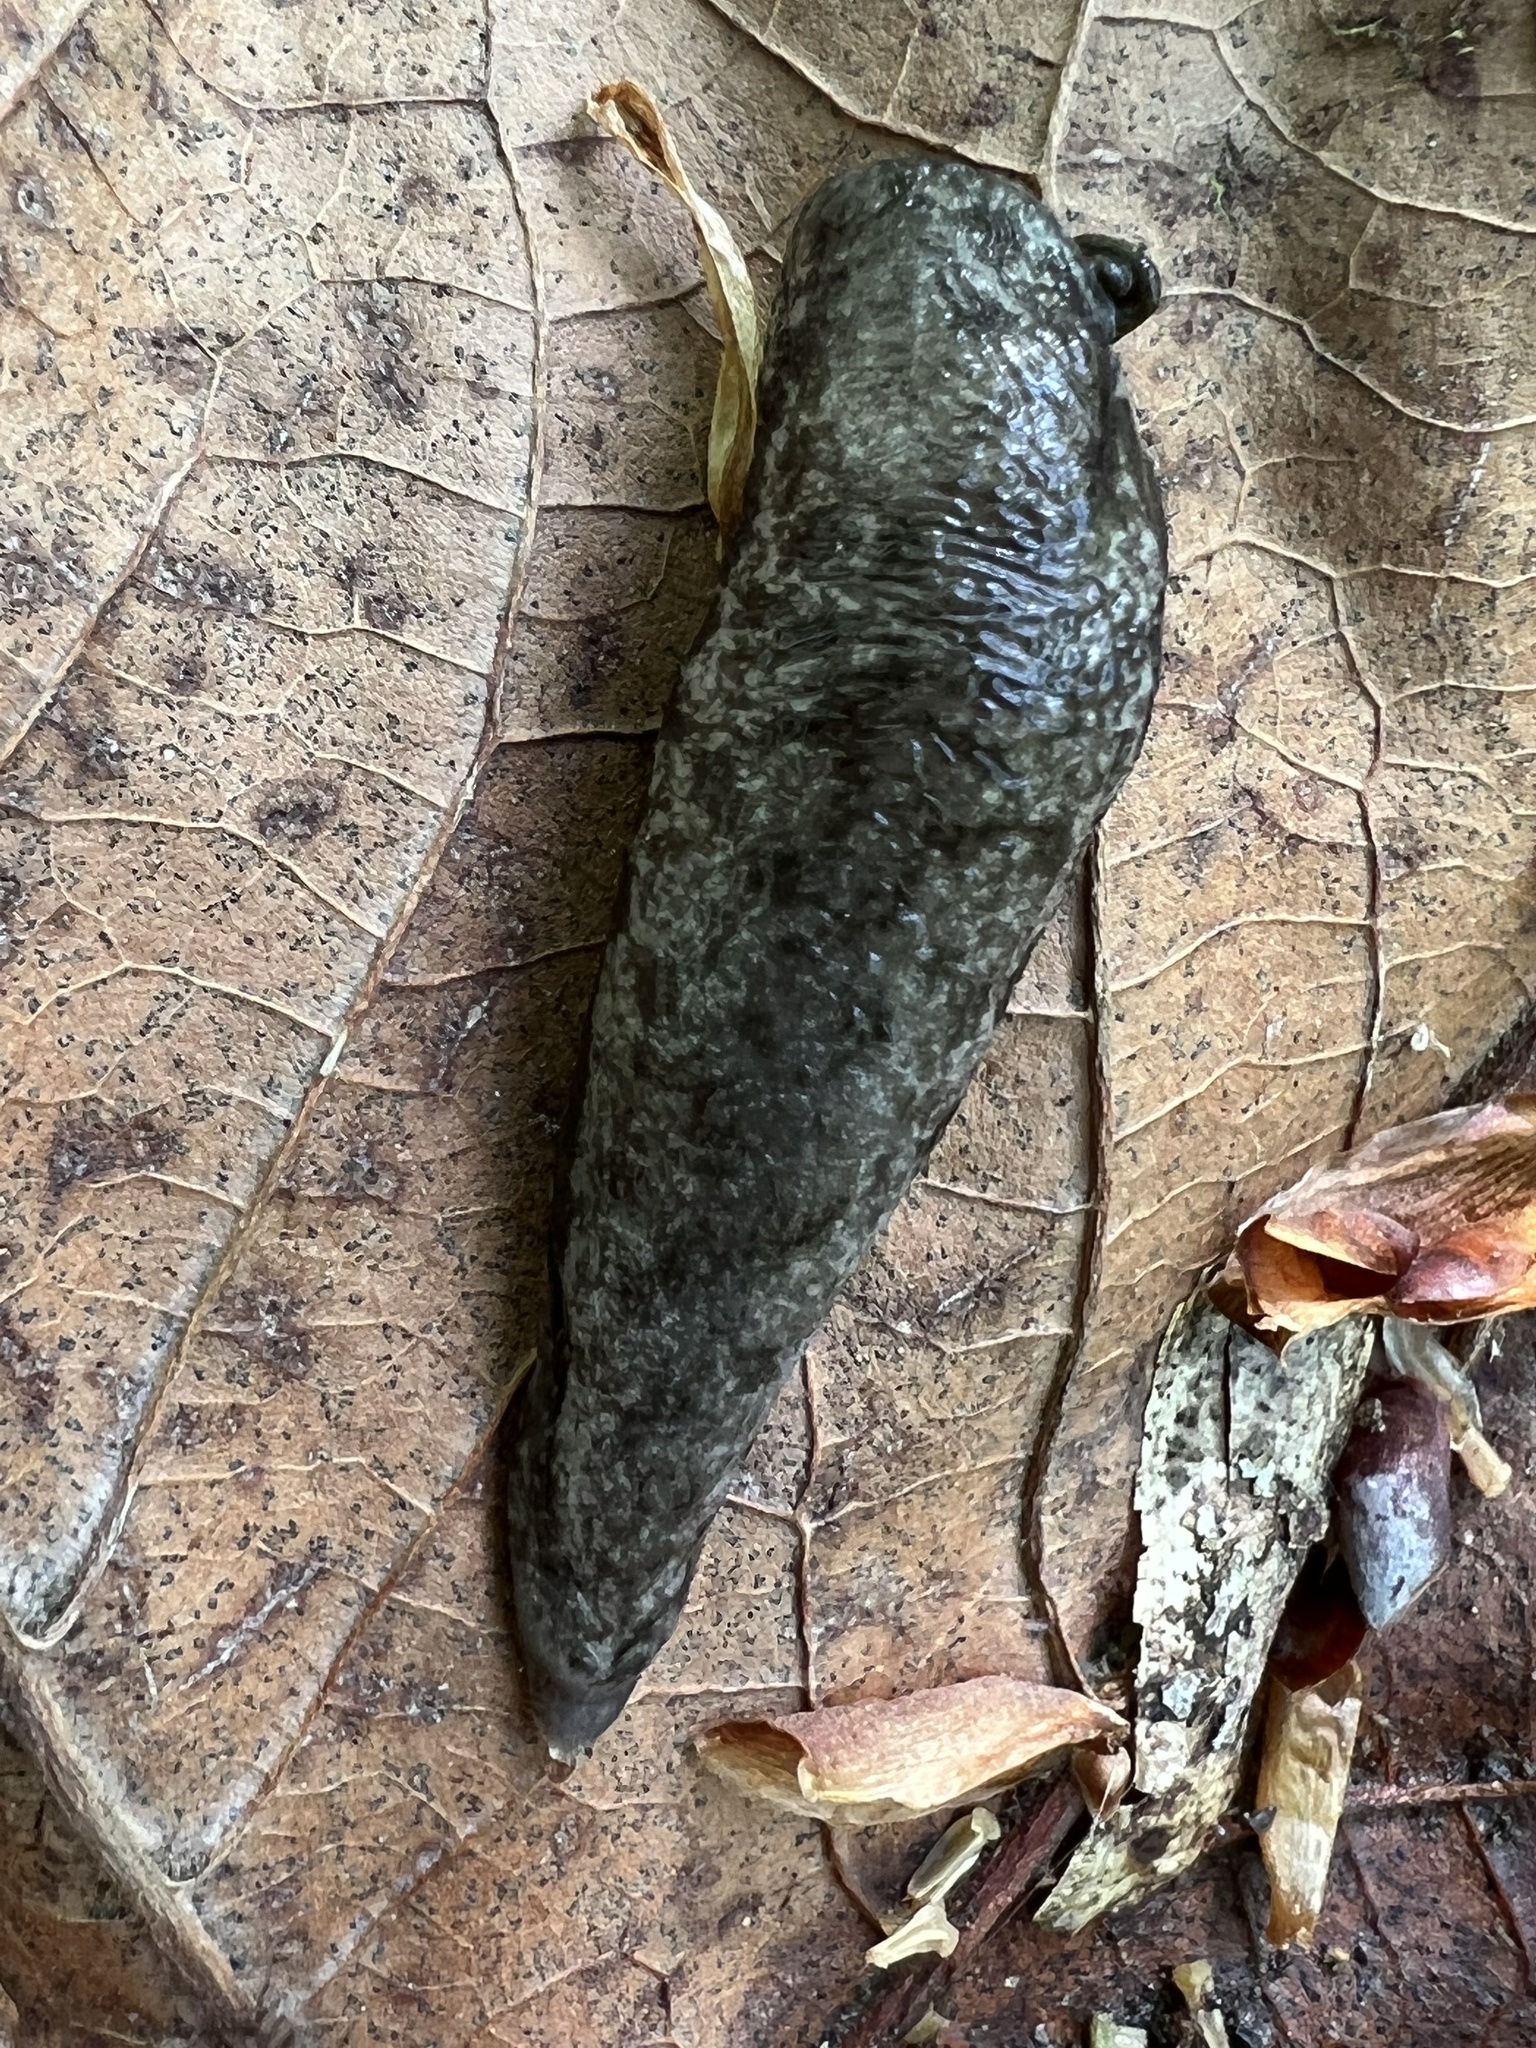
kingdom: Animalia
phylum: Mollusca
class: Gastropoda
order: Stylommatophora
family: Philomycidae
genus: Megapallifera
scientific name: Megapallifera mutabilis
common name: Changeable mantleslug
